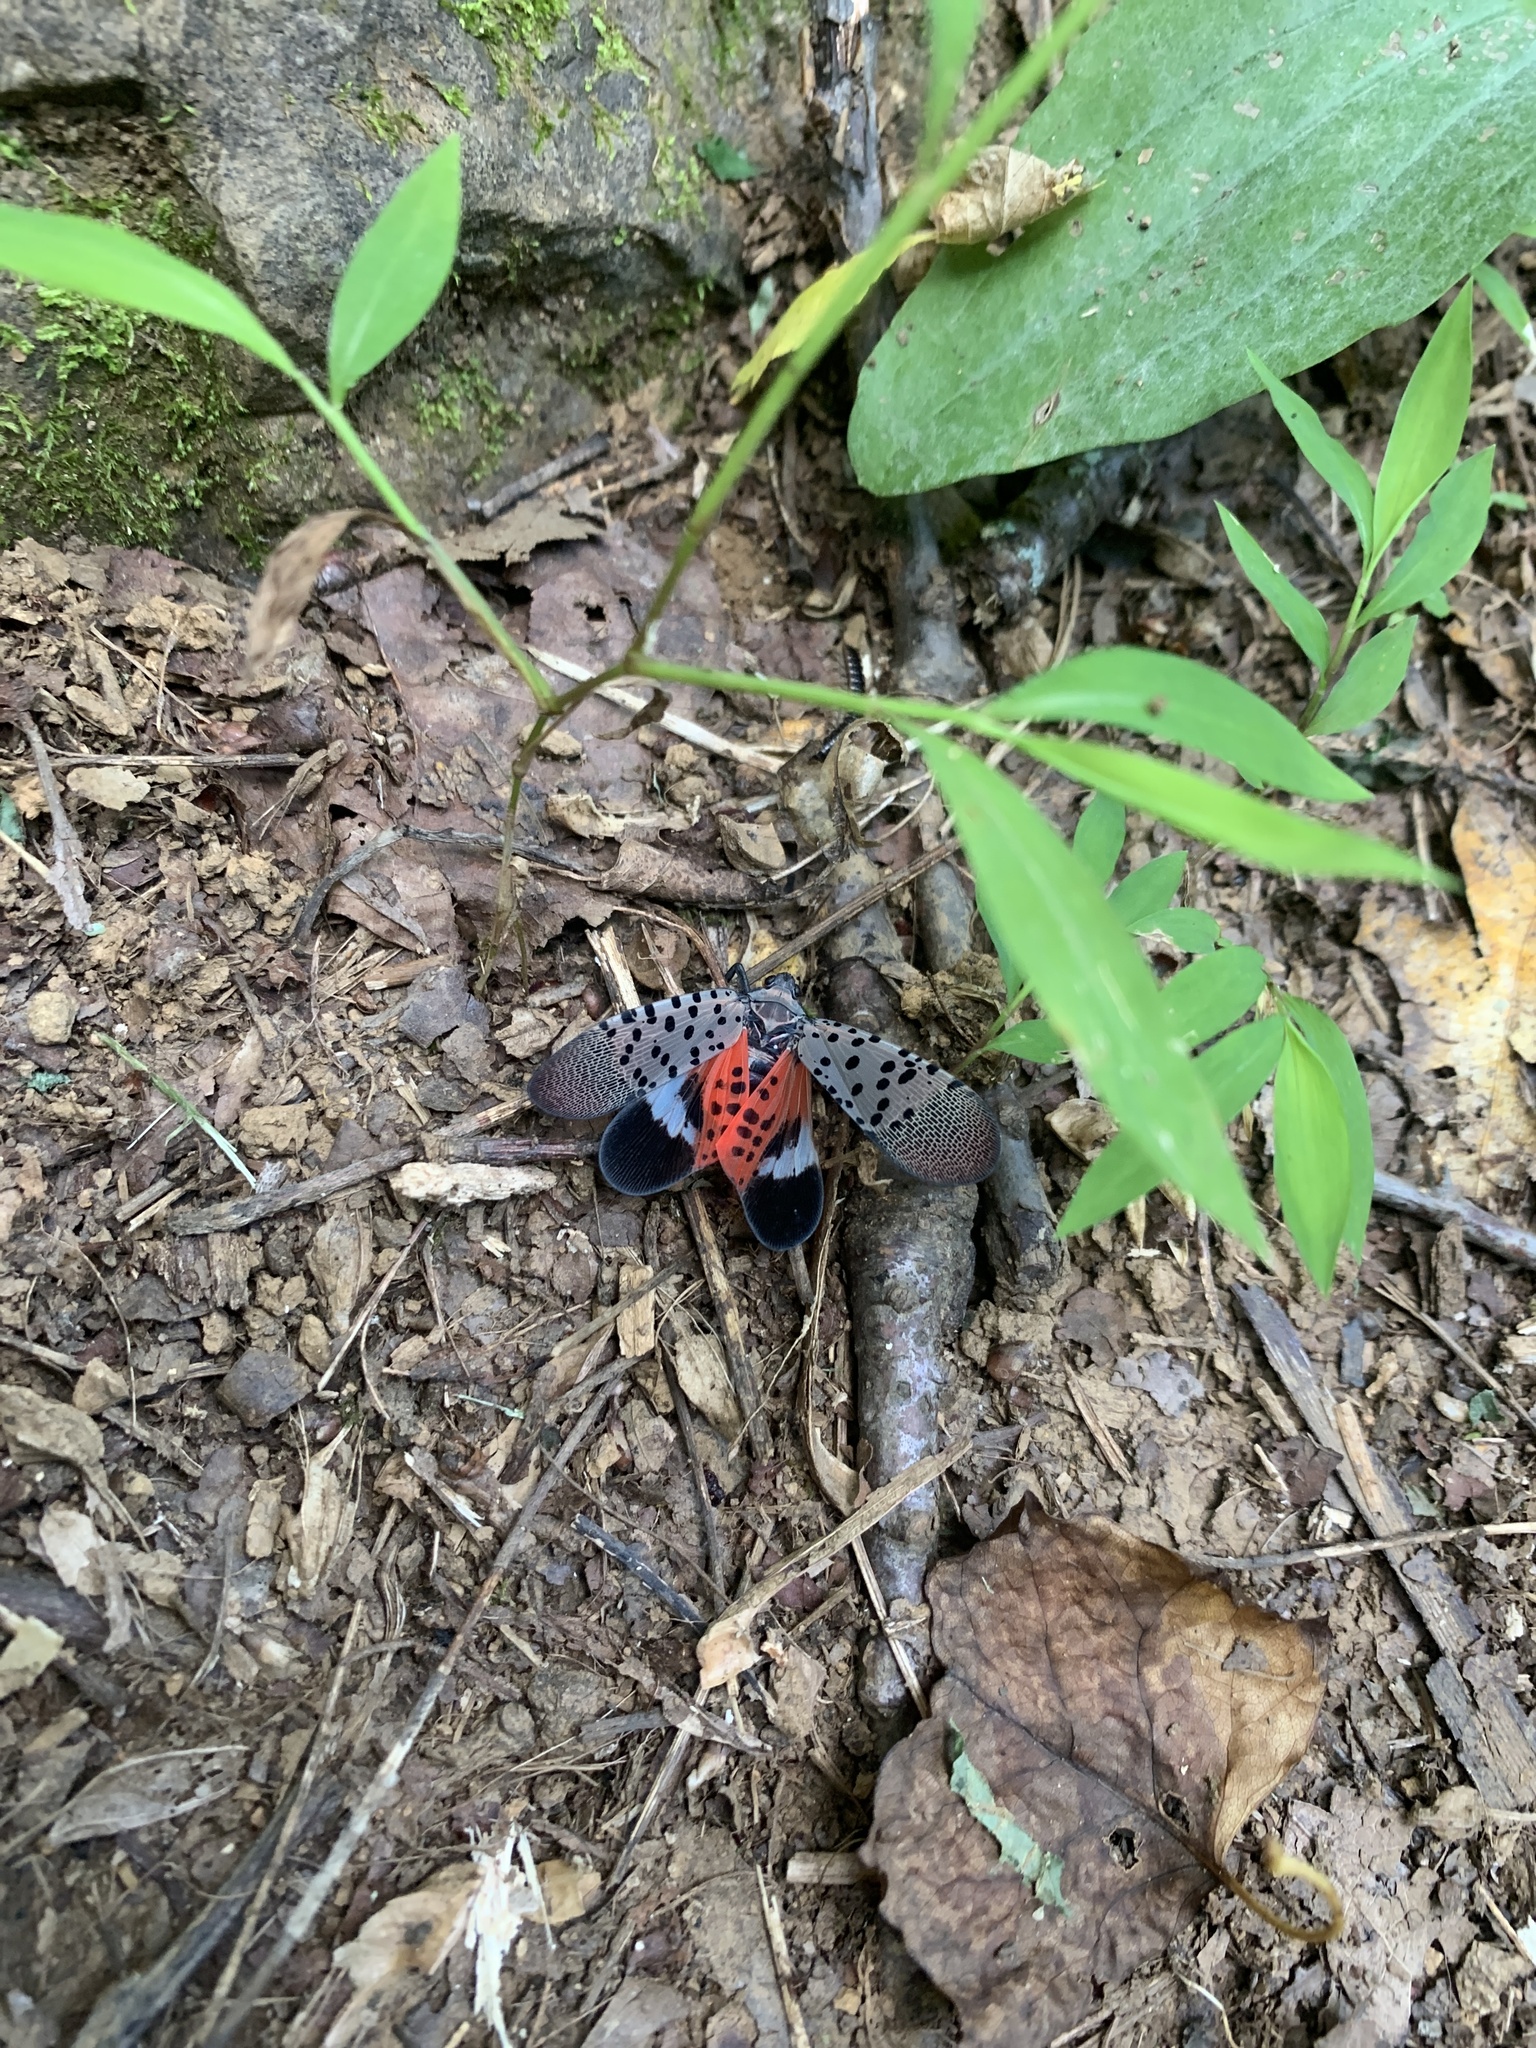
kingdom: Animalia
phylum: Arthropoda
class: Insecta
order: Hemiptera
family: Fulgoridae
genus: Lycorma
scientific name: Lycorma delicatula
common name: Spotted lanternfly
